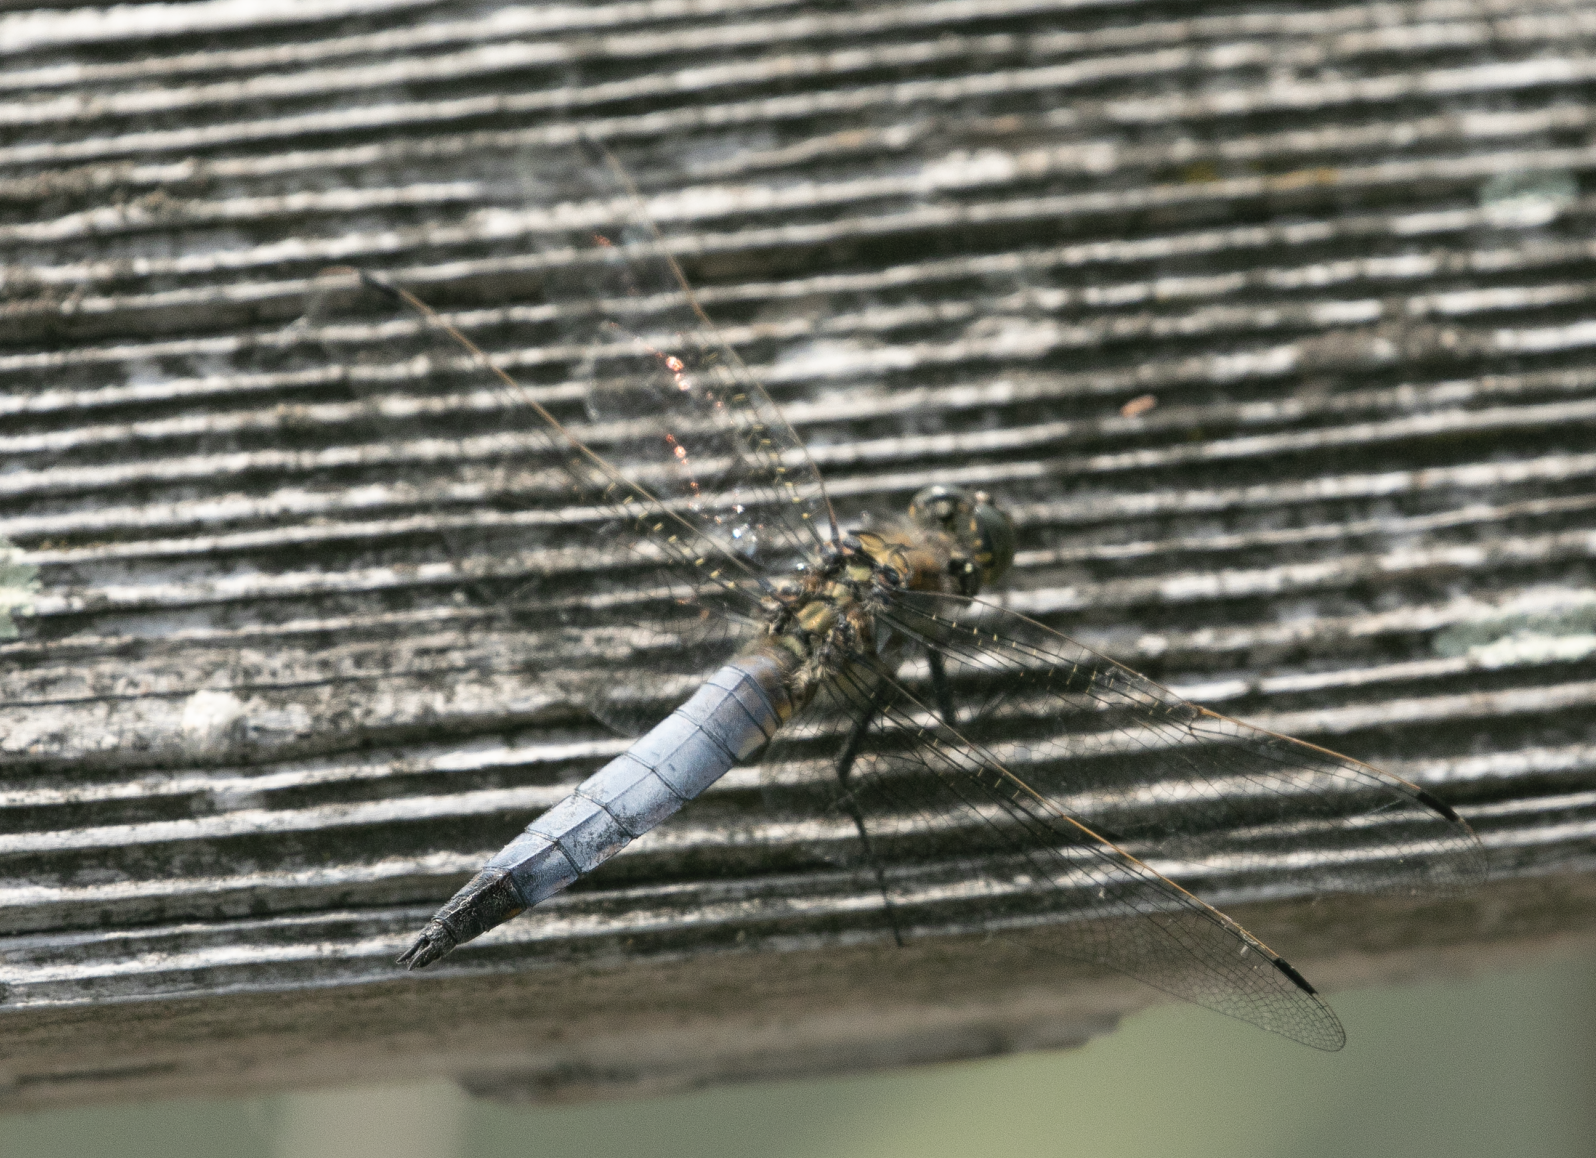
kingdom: Animalia
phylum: Arthropoda
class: Insecta
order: Odonata
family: Libellulidae
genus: Orthetrum
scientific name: Orthetrum cancellatum
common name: Black-tailed skimmer
